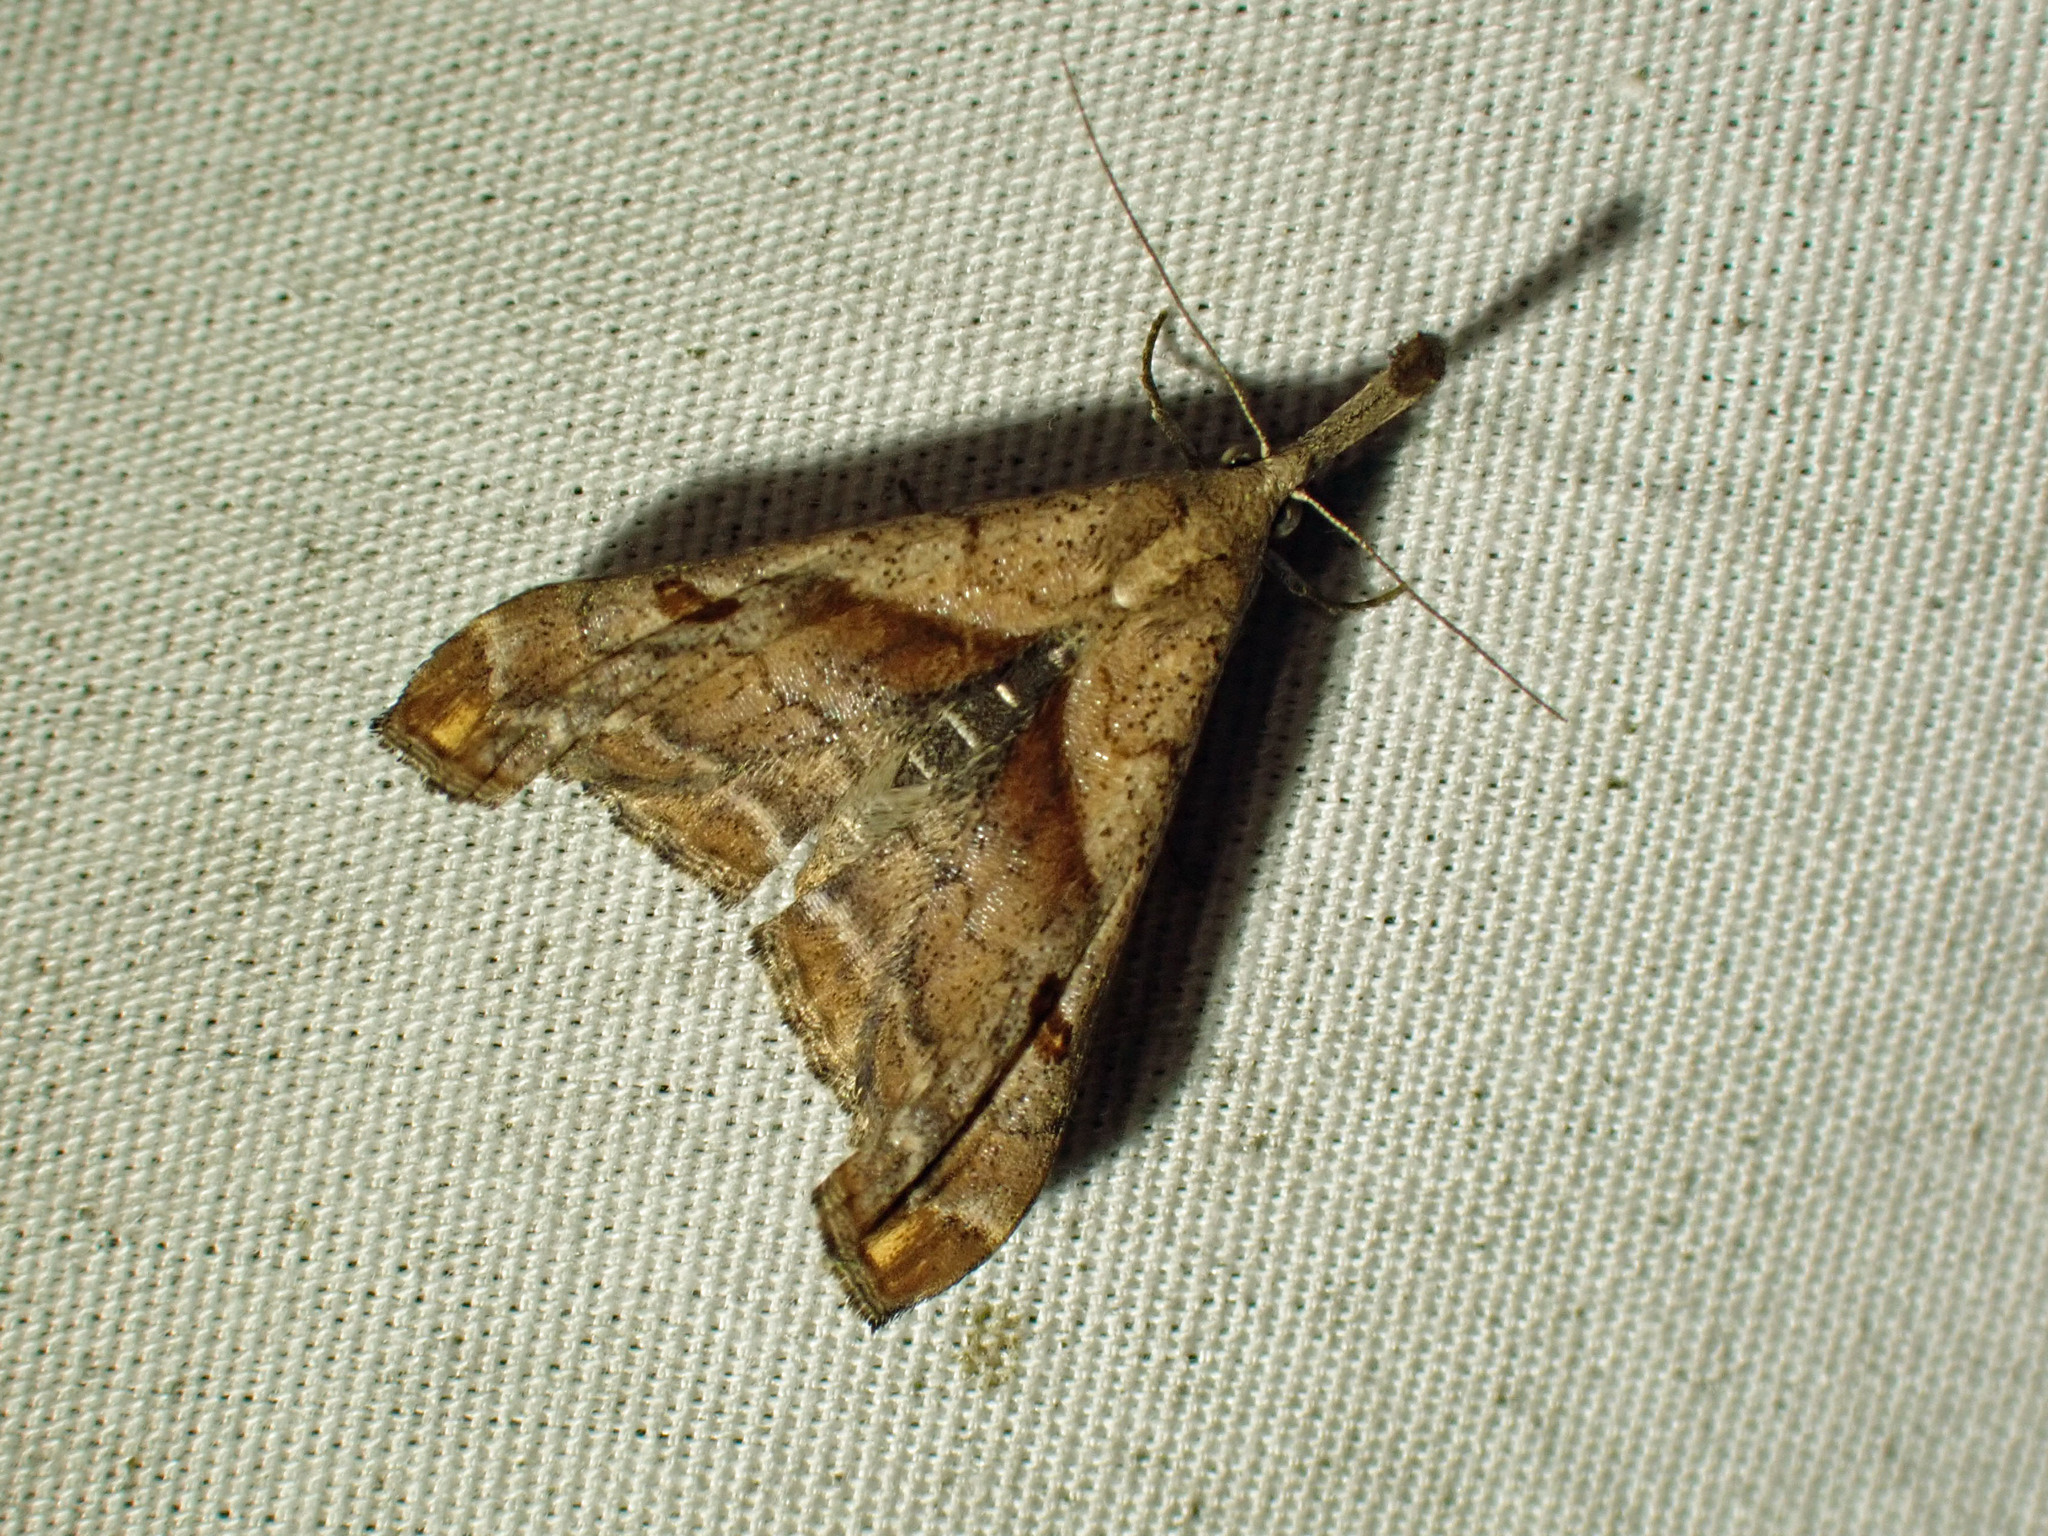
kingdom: Animalia
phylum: Arthropoda
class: Insecta
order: Lepidoptera
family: Erebidae
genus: Palthis
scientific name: Palthis angulalis
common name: Dark-spotted palthis moth
